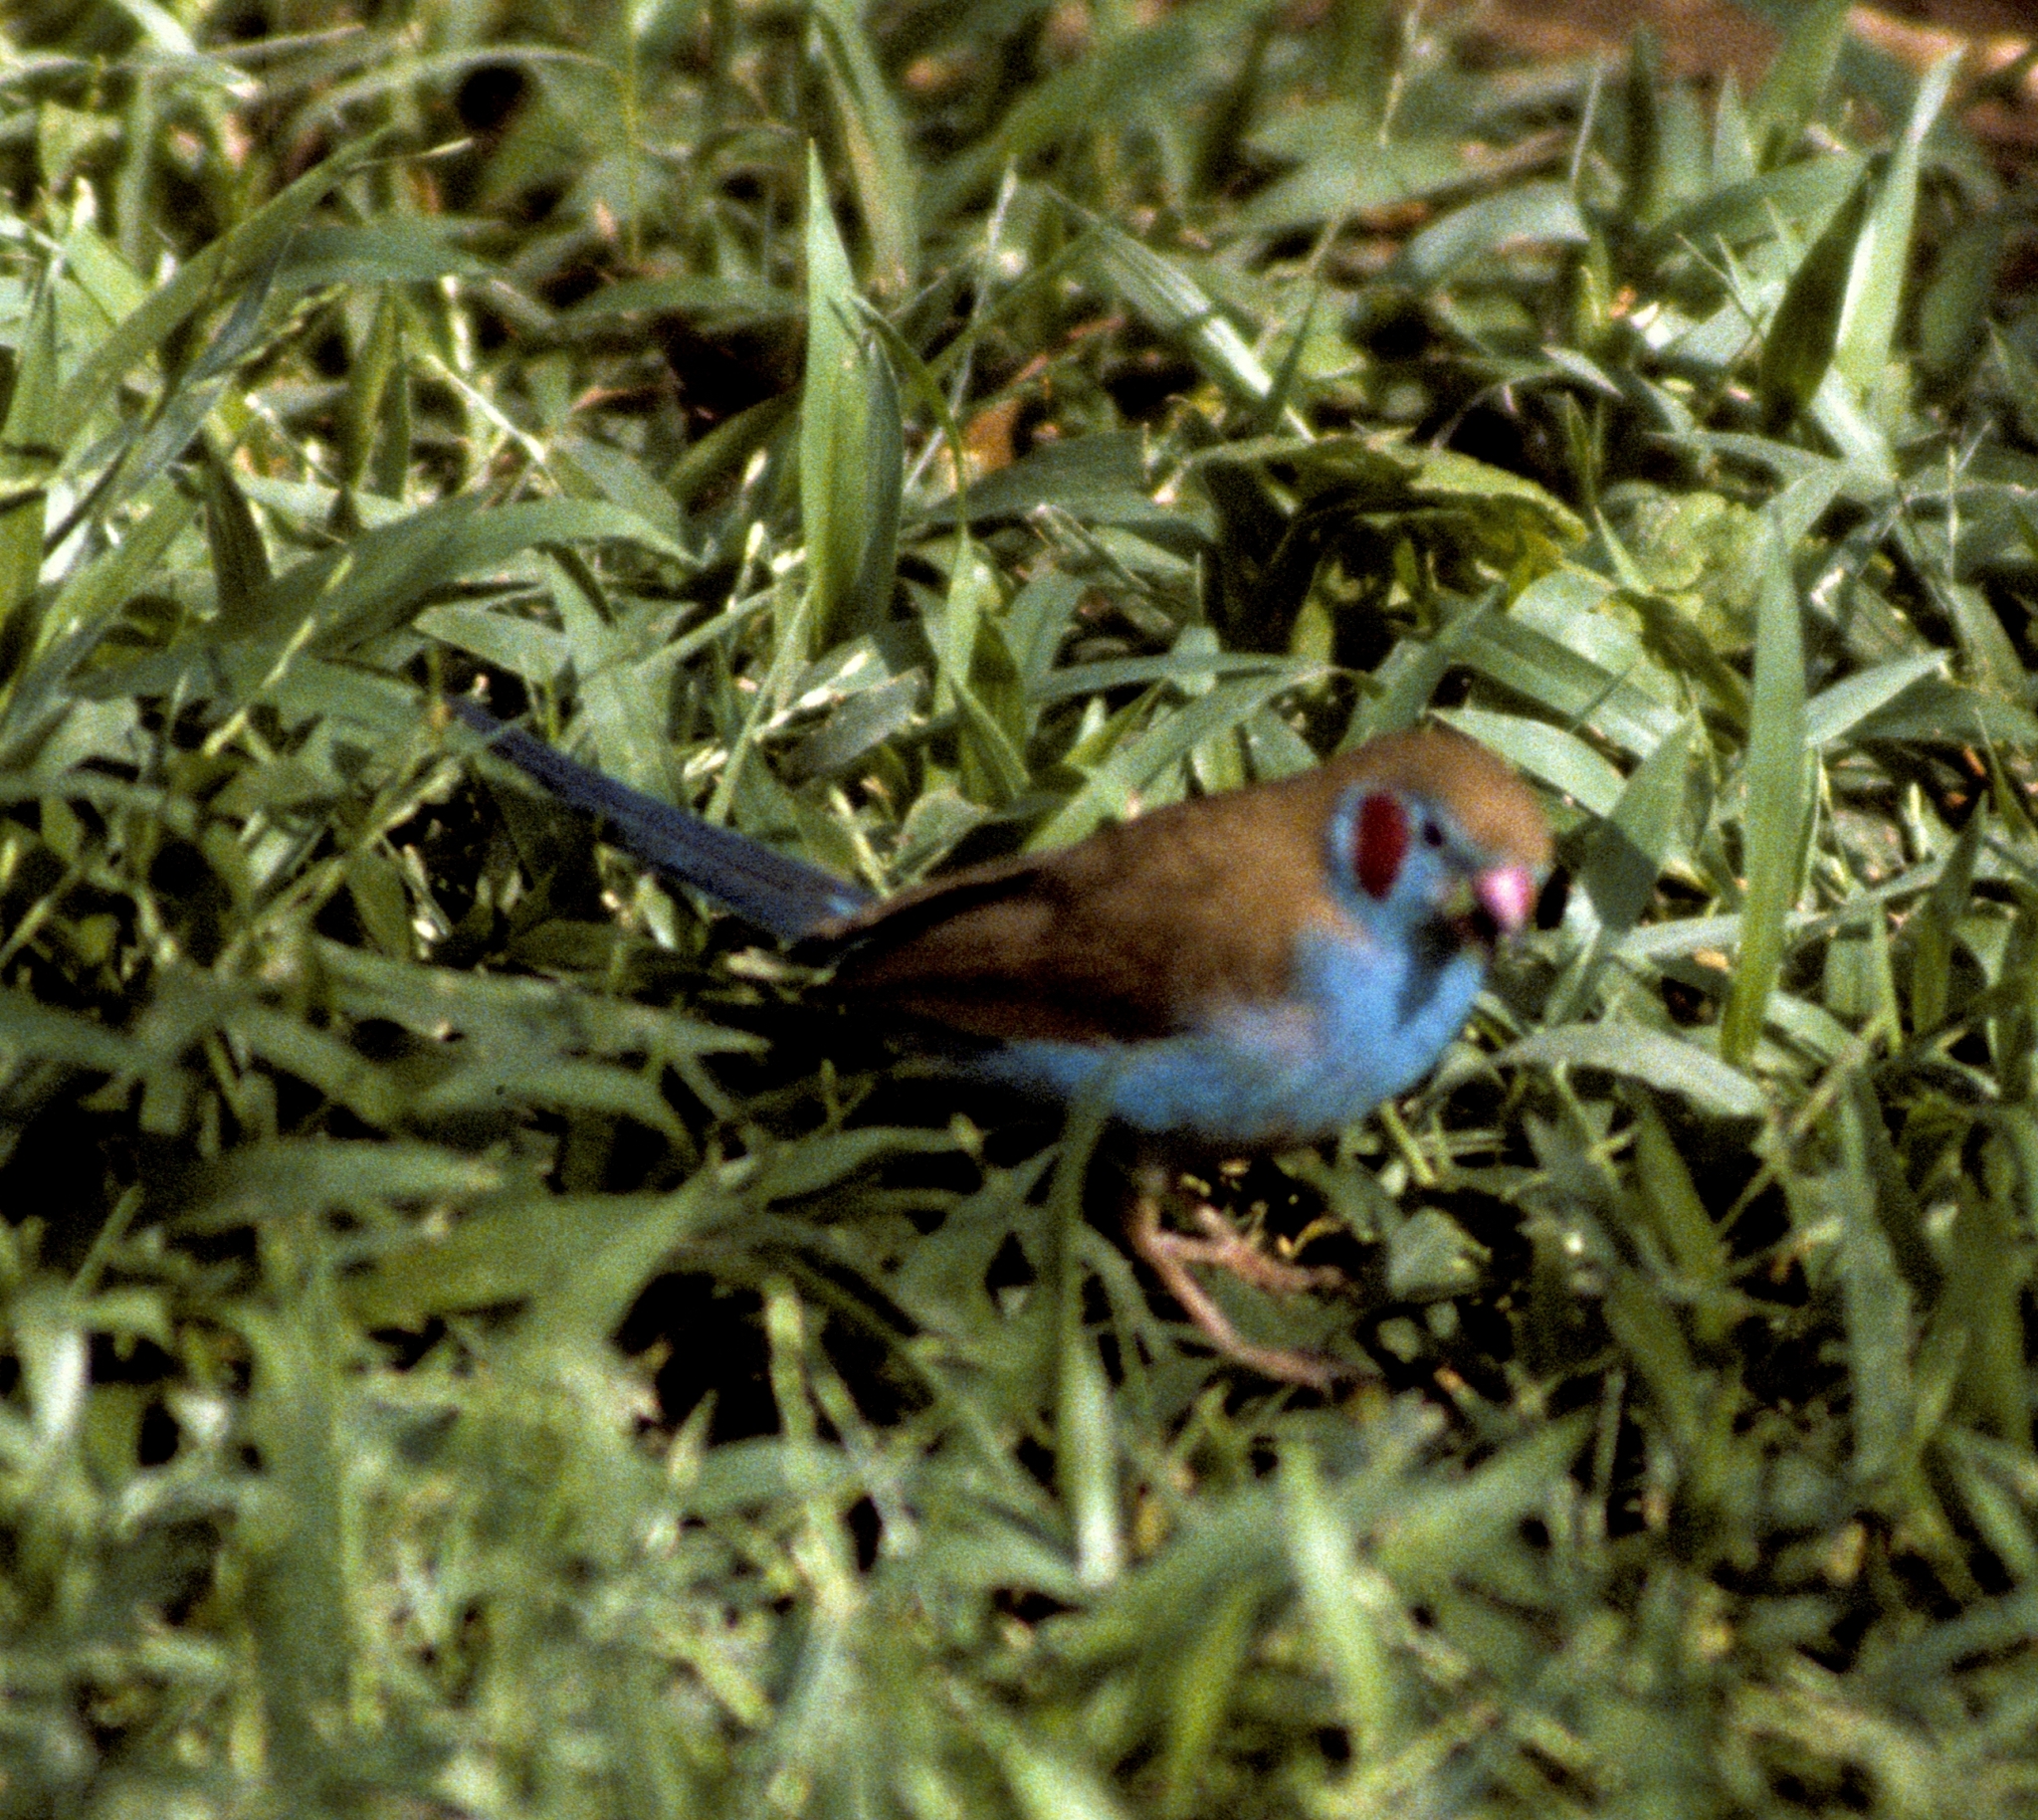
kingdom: Animalia
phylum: Chordata
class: Aves
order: Passeriformes
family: Estrildidae
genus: Uraeginthus
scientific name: Uraeginthus bengalus
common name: Red-cheeked cordon-bleu
